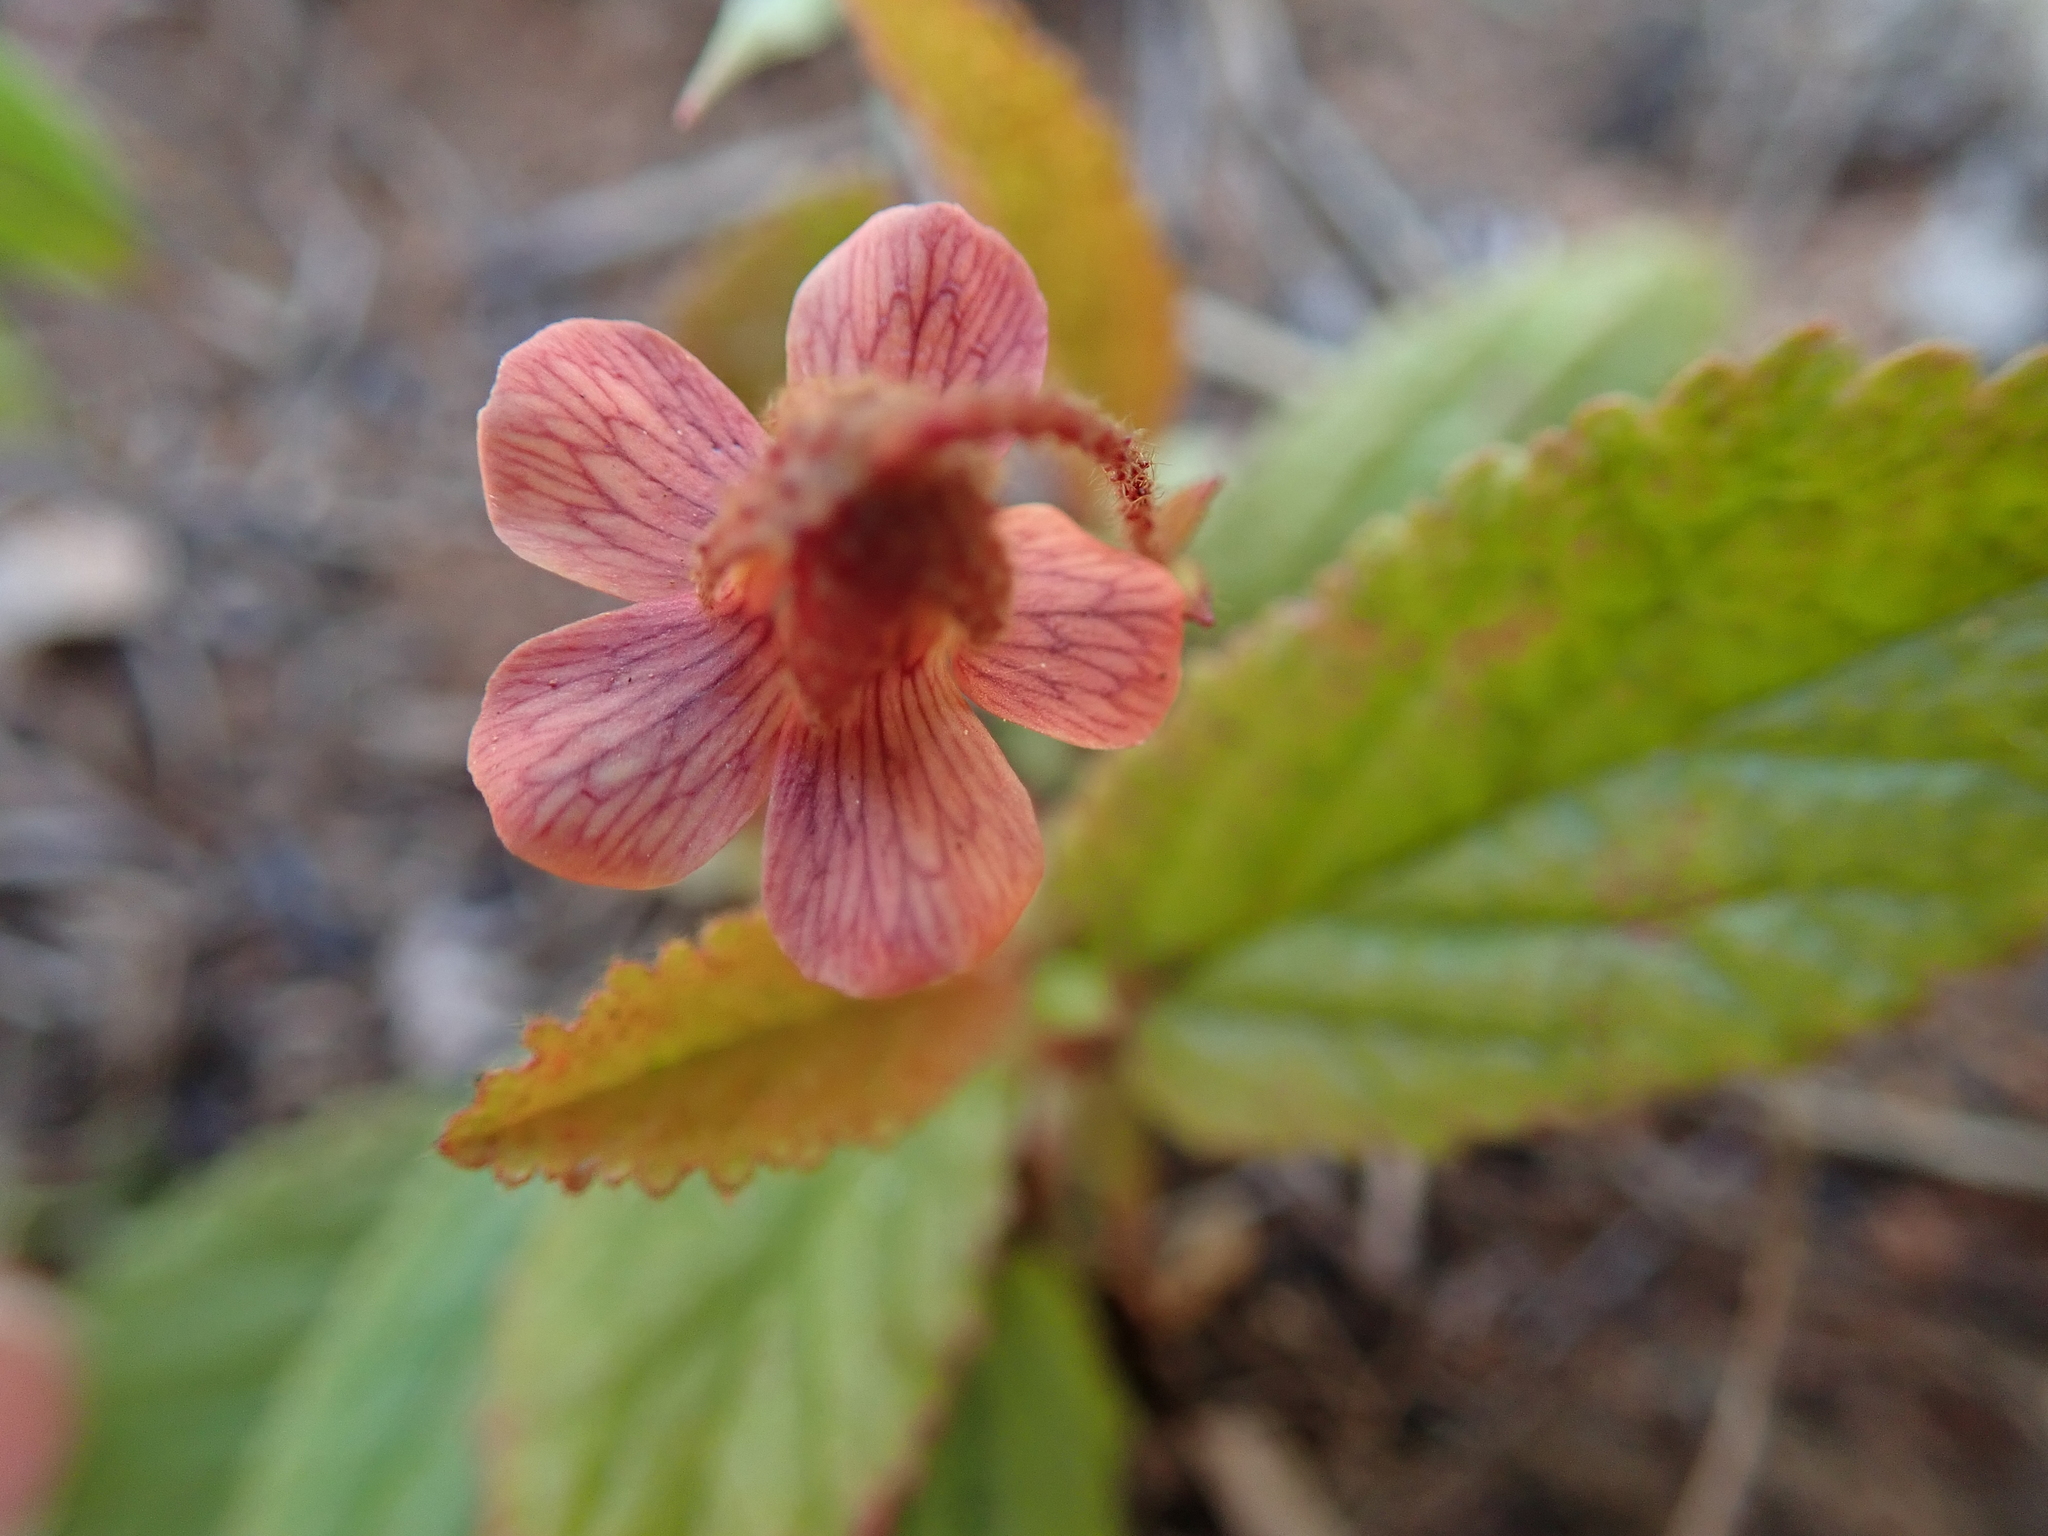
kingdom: Plantae
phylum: Tracheophyta
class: Magnoliopsida
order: Malvales
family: Malvaceae
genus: Hermannia
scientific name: Hermannia woodii
